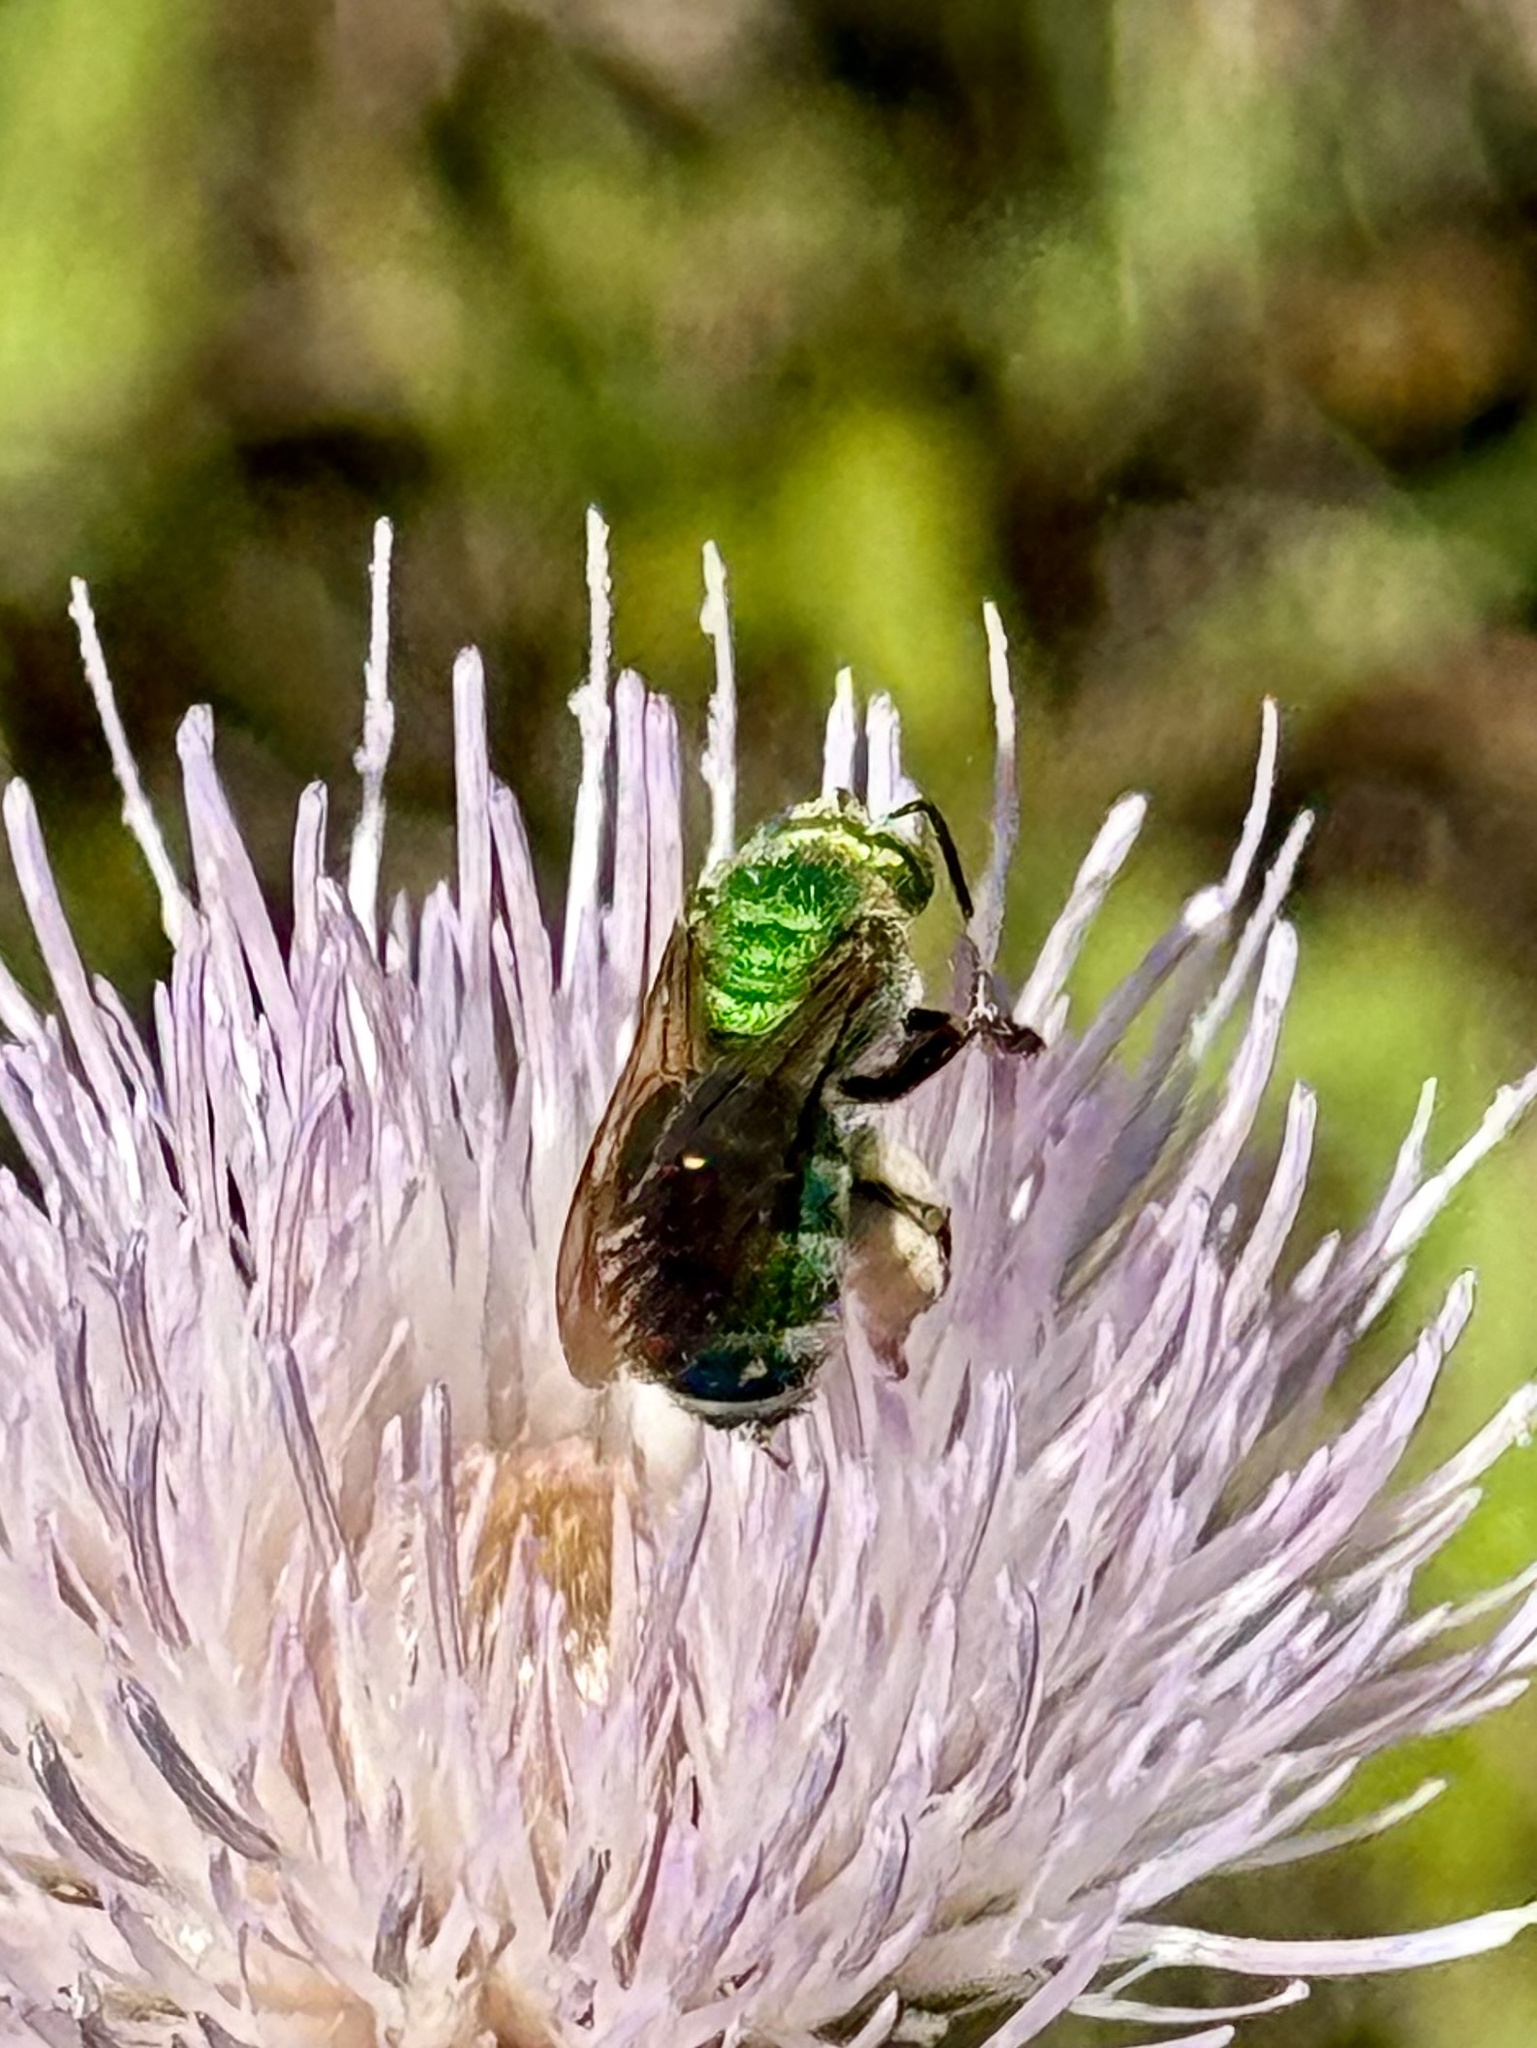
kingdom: Animalia
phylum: Arthropoda
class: Insecta
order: Hymenoptera
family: Halictidae
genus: Agapostemon
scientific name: Agapostemon splendens
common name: Brown-winged striped sweat bee
